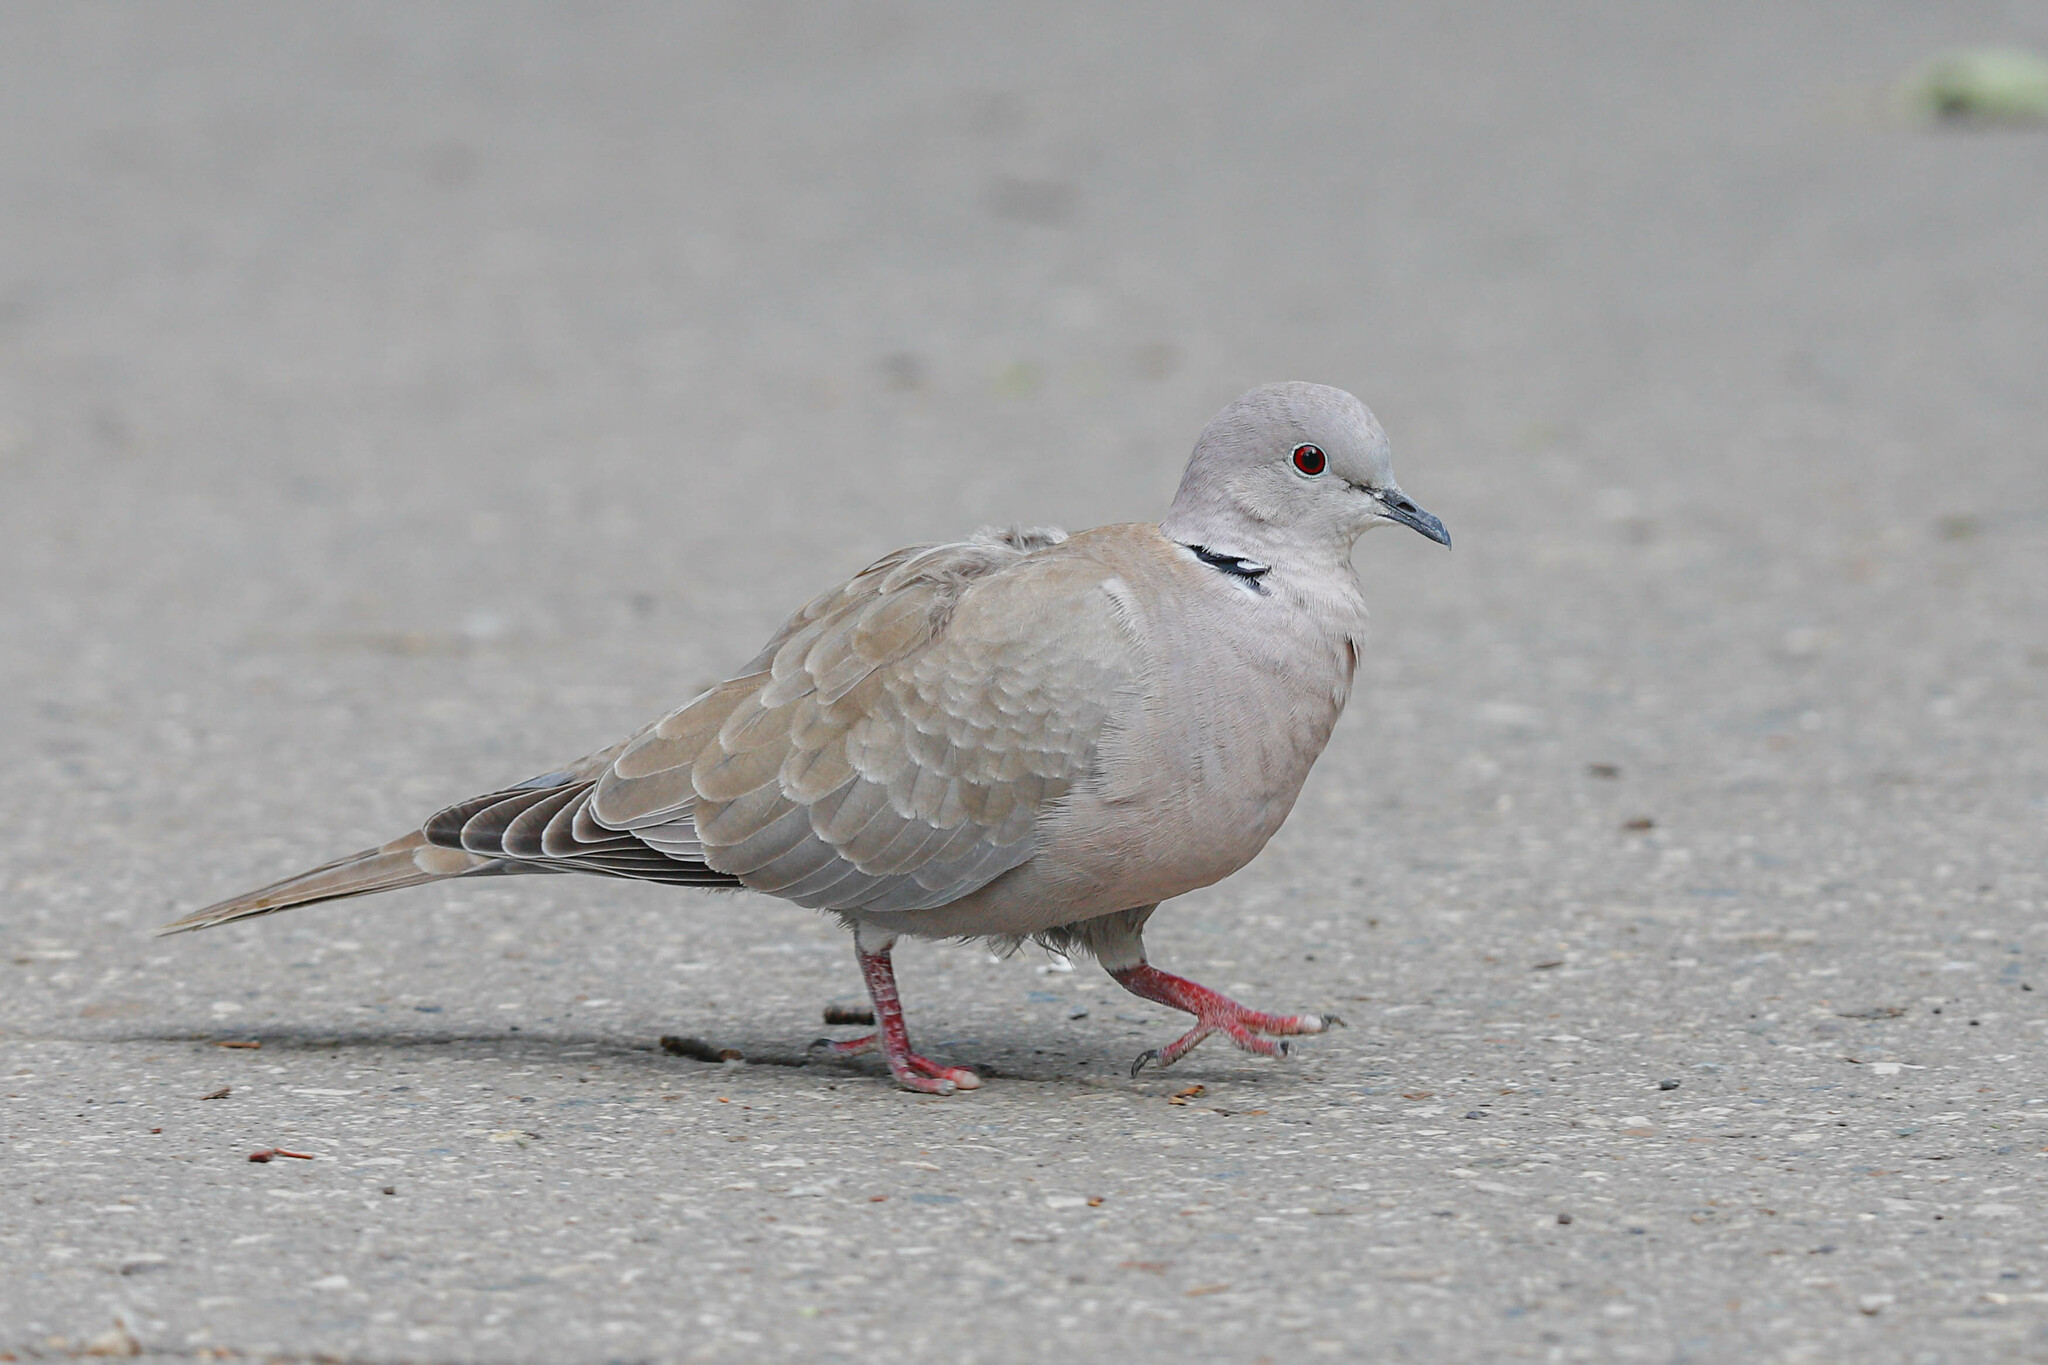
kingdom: Animalia
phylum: Chordata
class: Aves
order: Columbiformes
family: Columbidae
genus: Streptopelia
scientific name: Streptopelia decaocto
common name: Eurasian collared dove
